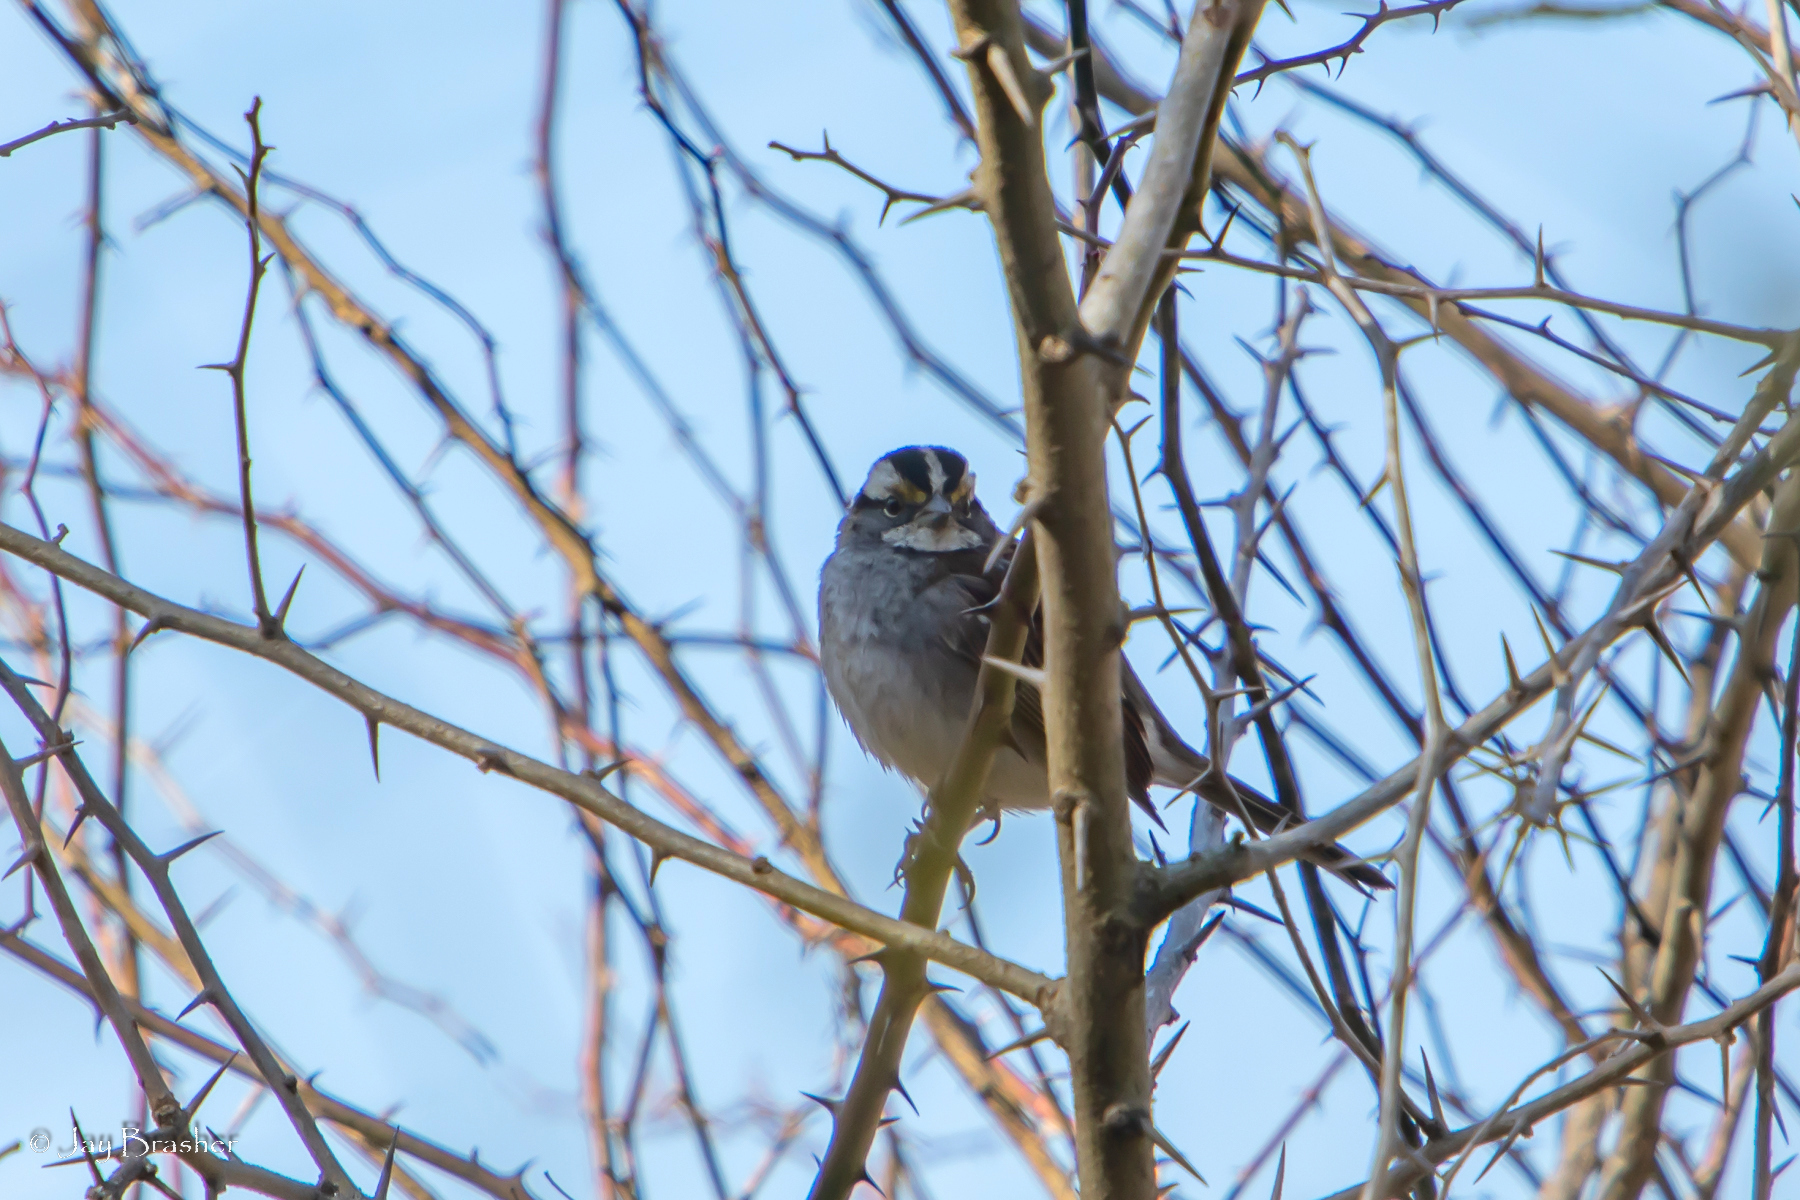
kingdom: Animalia
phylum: Chordata
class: Aves
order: Passeriformes
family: Passerellidae
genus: Zonotrichia
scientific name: Zonotrichia albicollis
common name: White-throated sparrow
